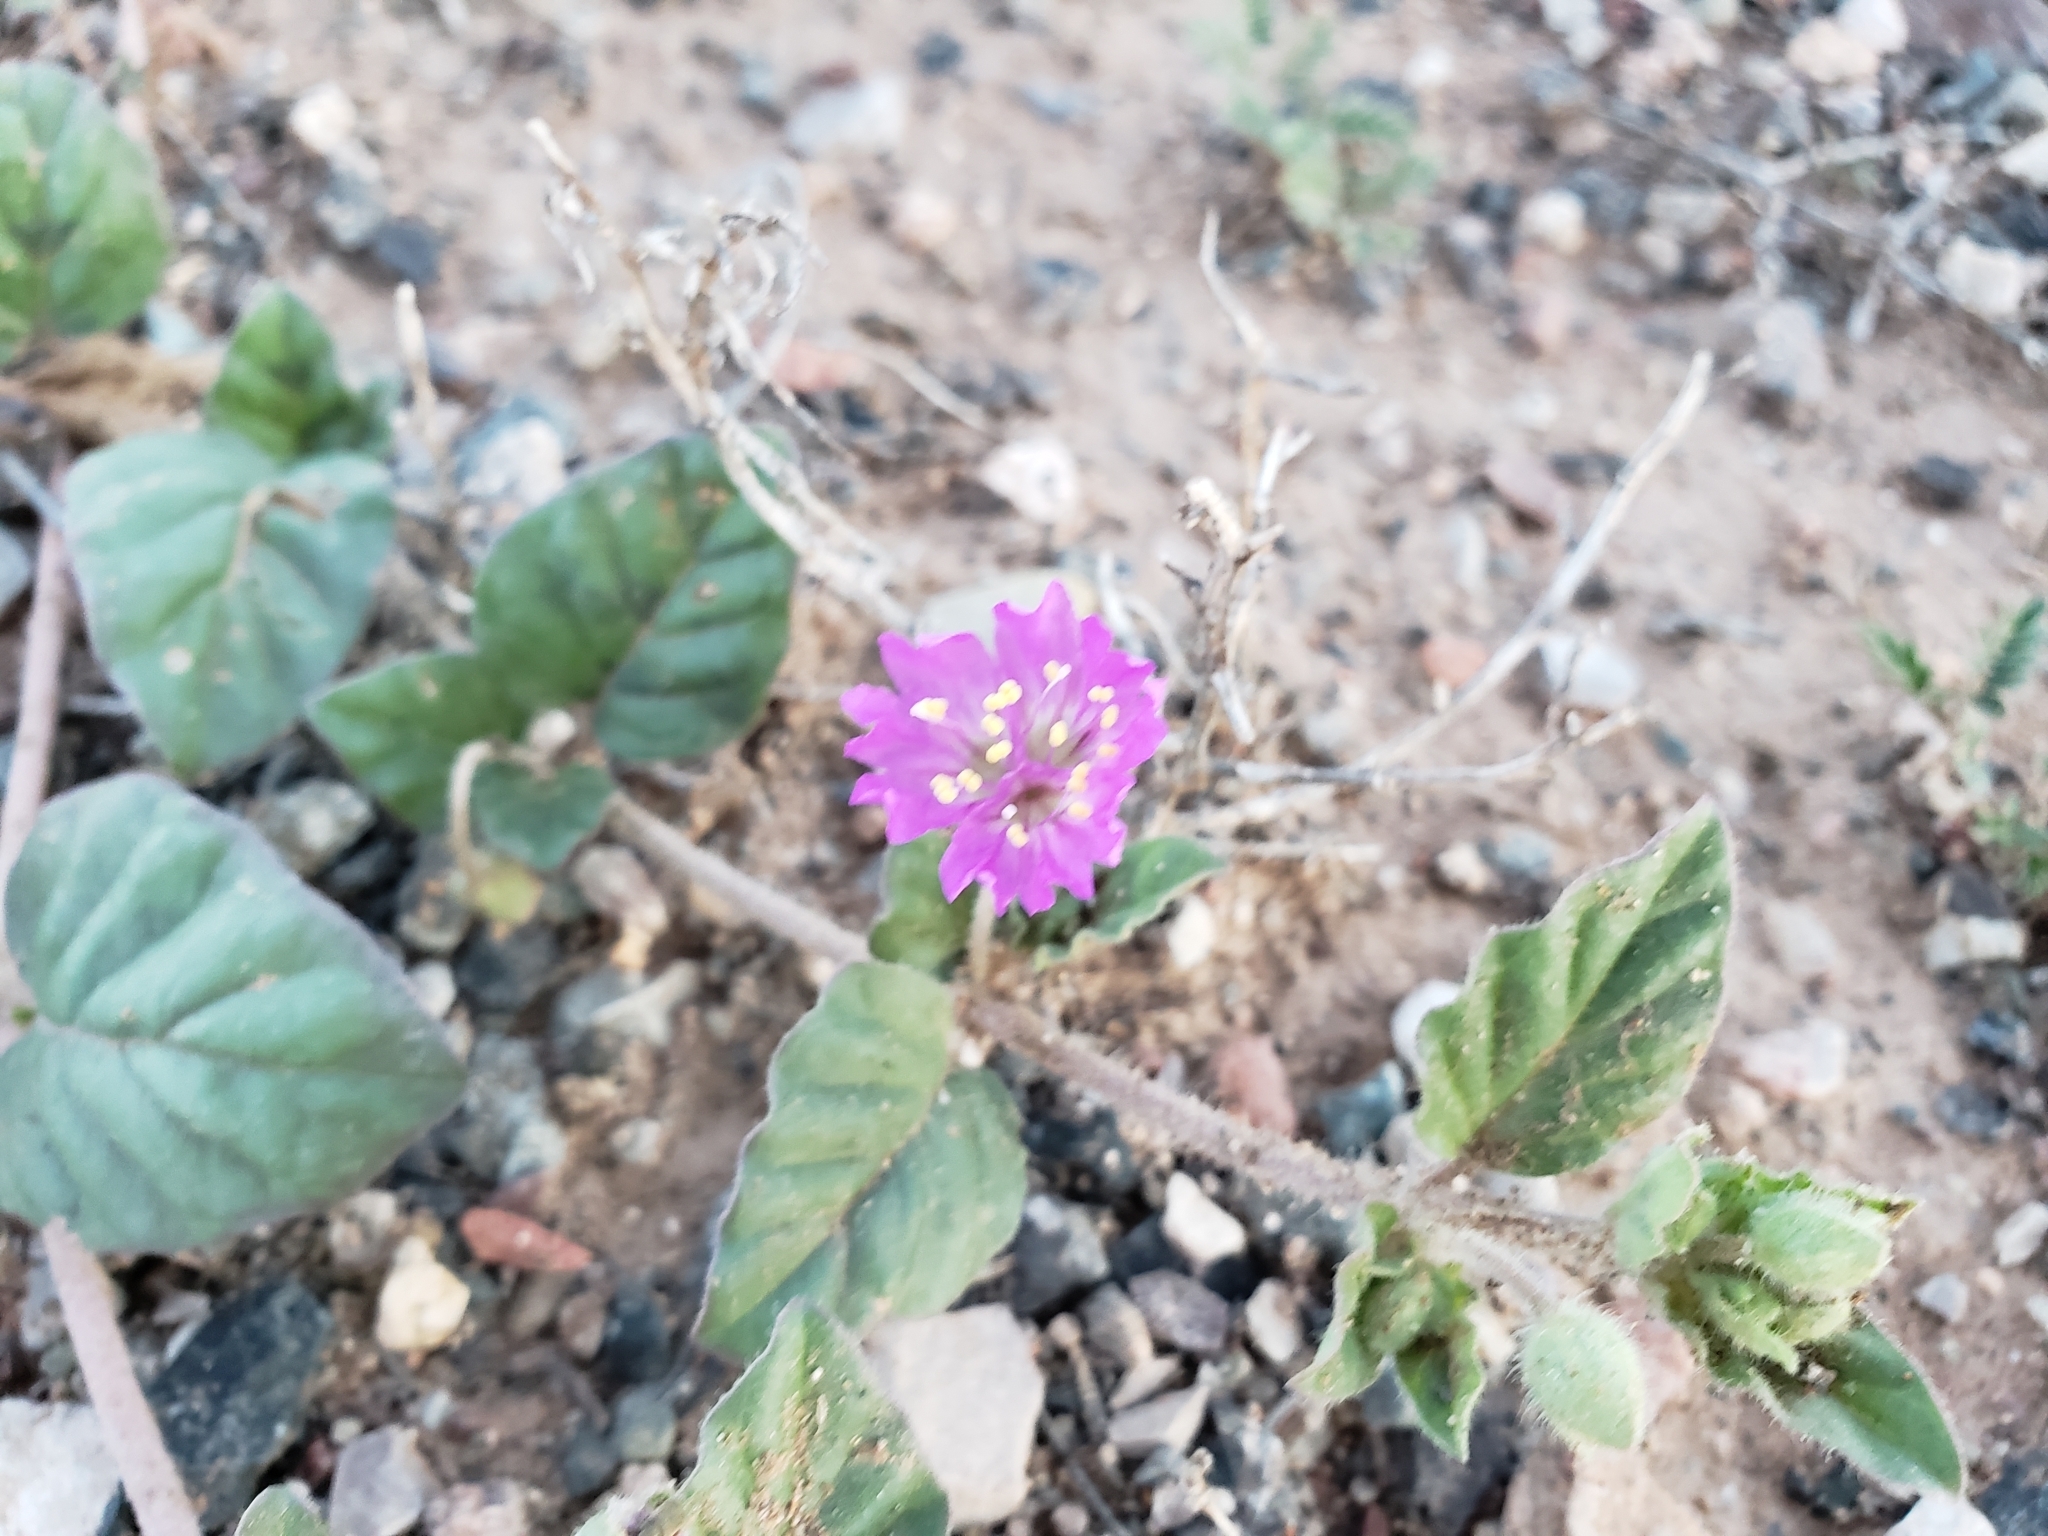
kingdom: Plantae
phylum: Tracheophyta
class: Magnoliopsida
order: Caryophyllales
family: Nyctaginaceae
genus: Allionia
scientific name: Allionia incarnata
